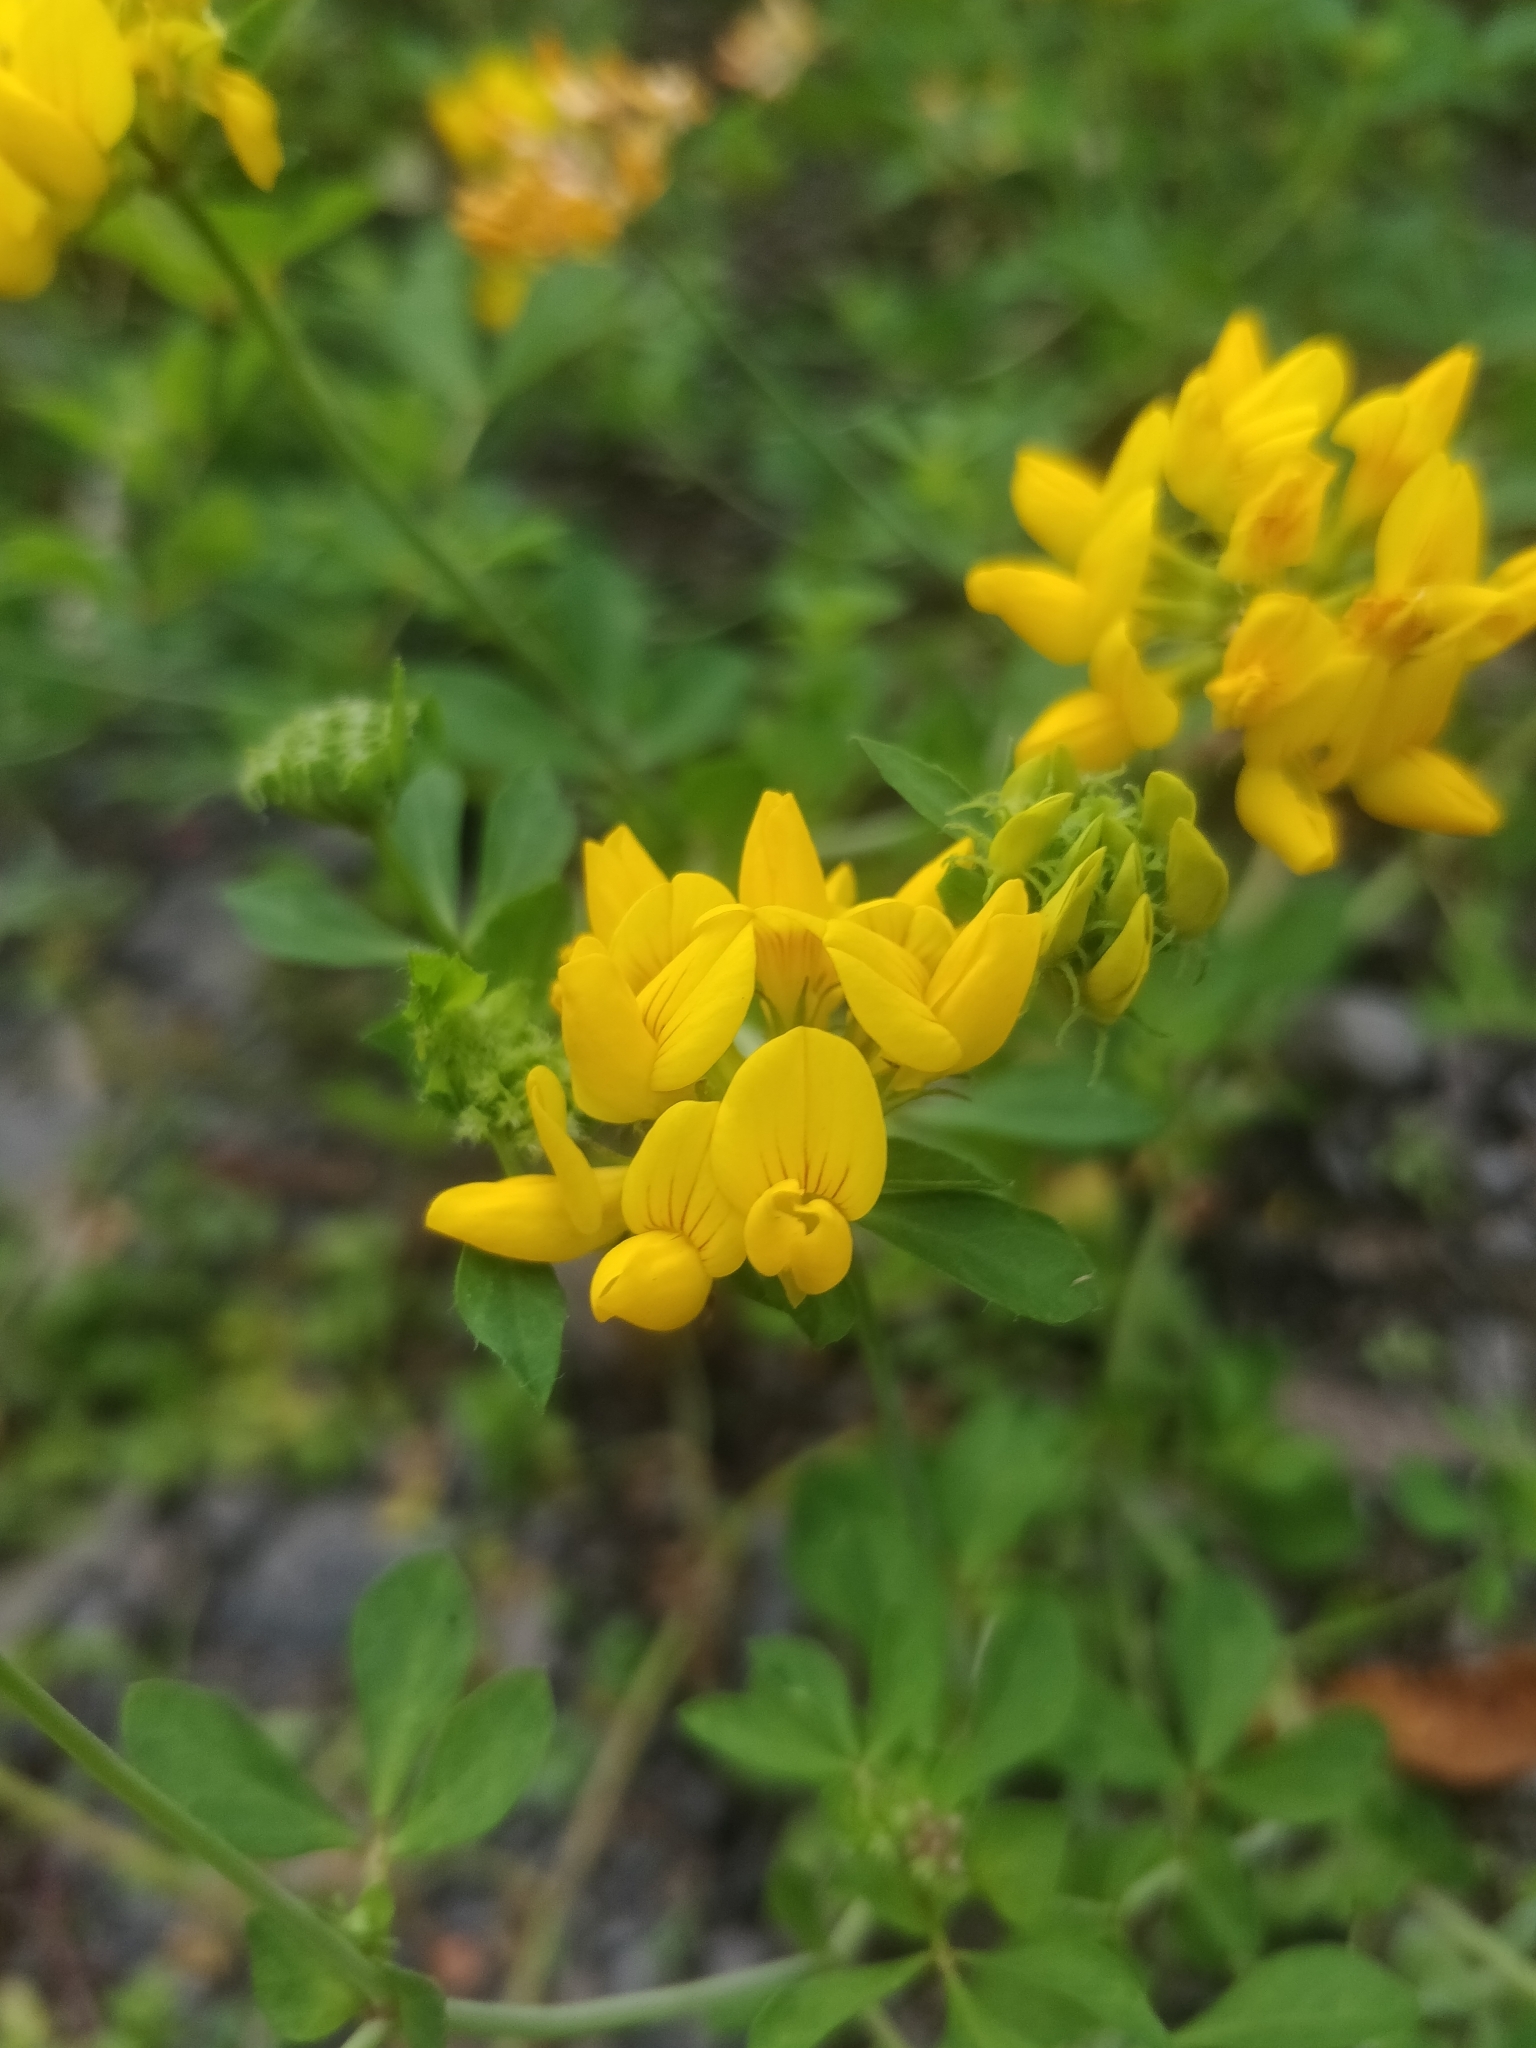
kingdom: Plantae
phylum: Tracheophyta
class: Magnoliopsida
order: Fabales
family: Fabaceae
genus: Lotus
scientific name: Lotus pedunculatus
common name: Greater birdsfoot-trefoil
